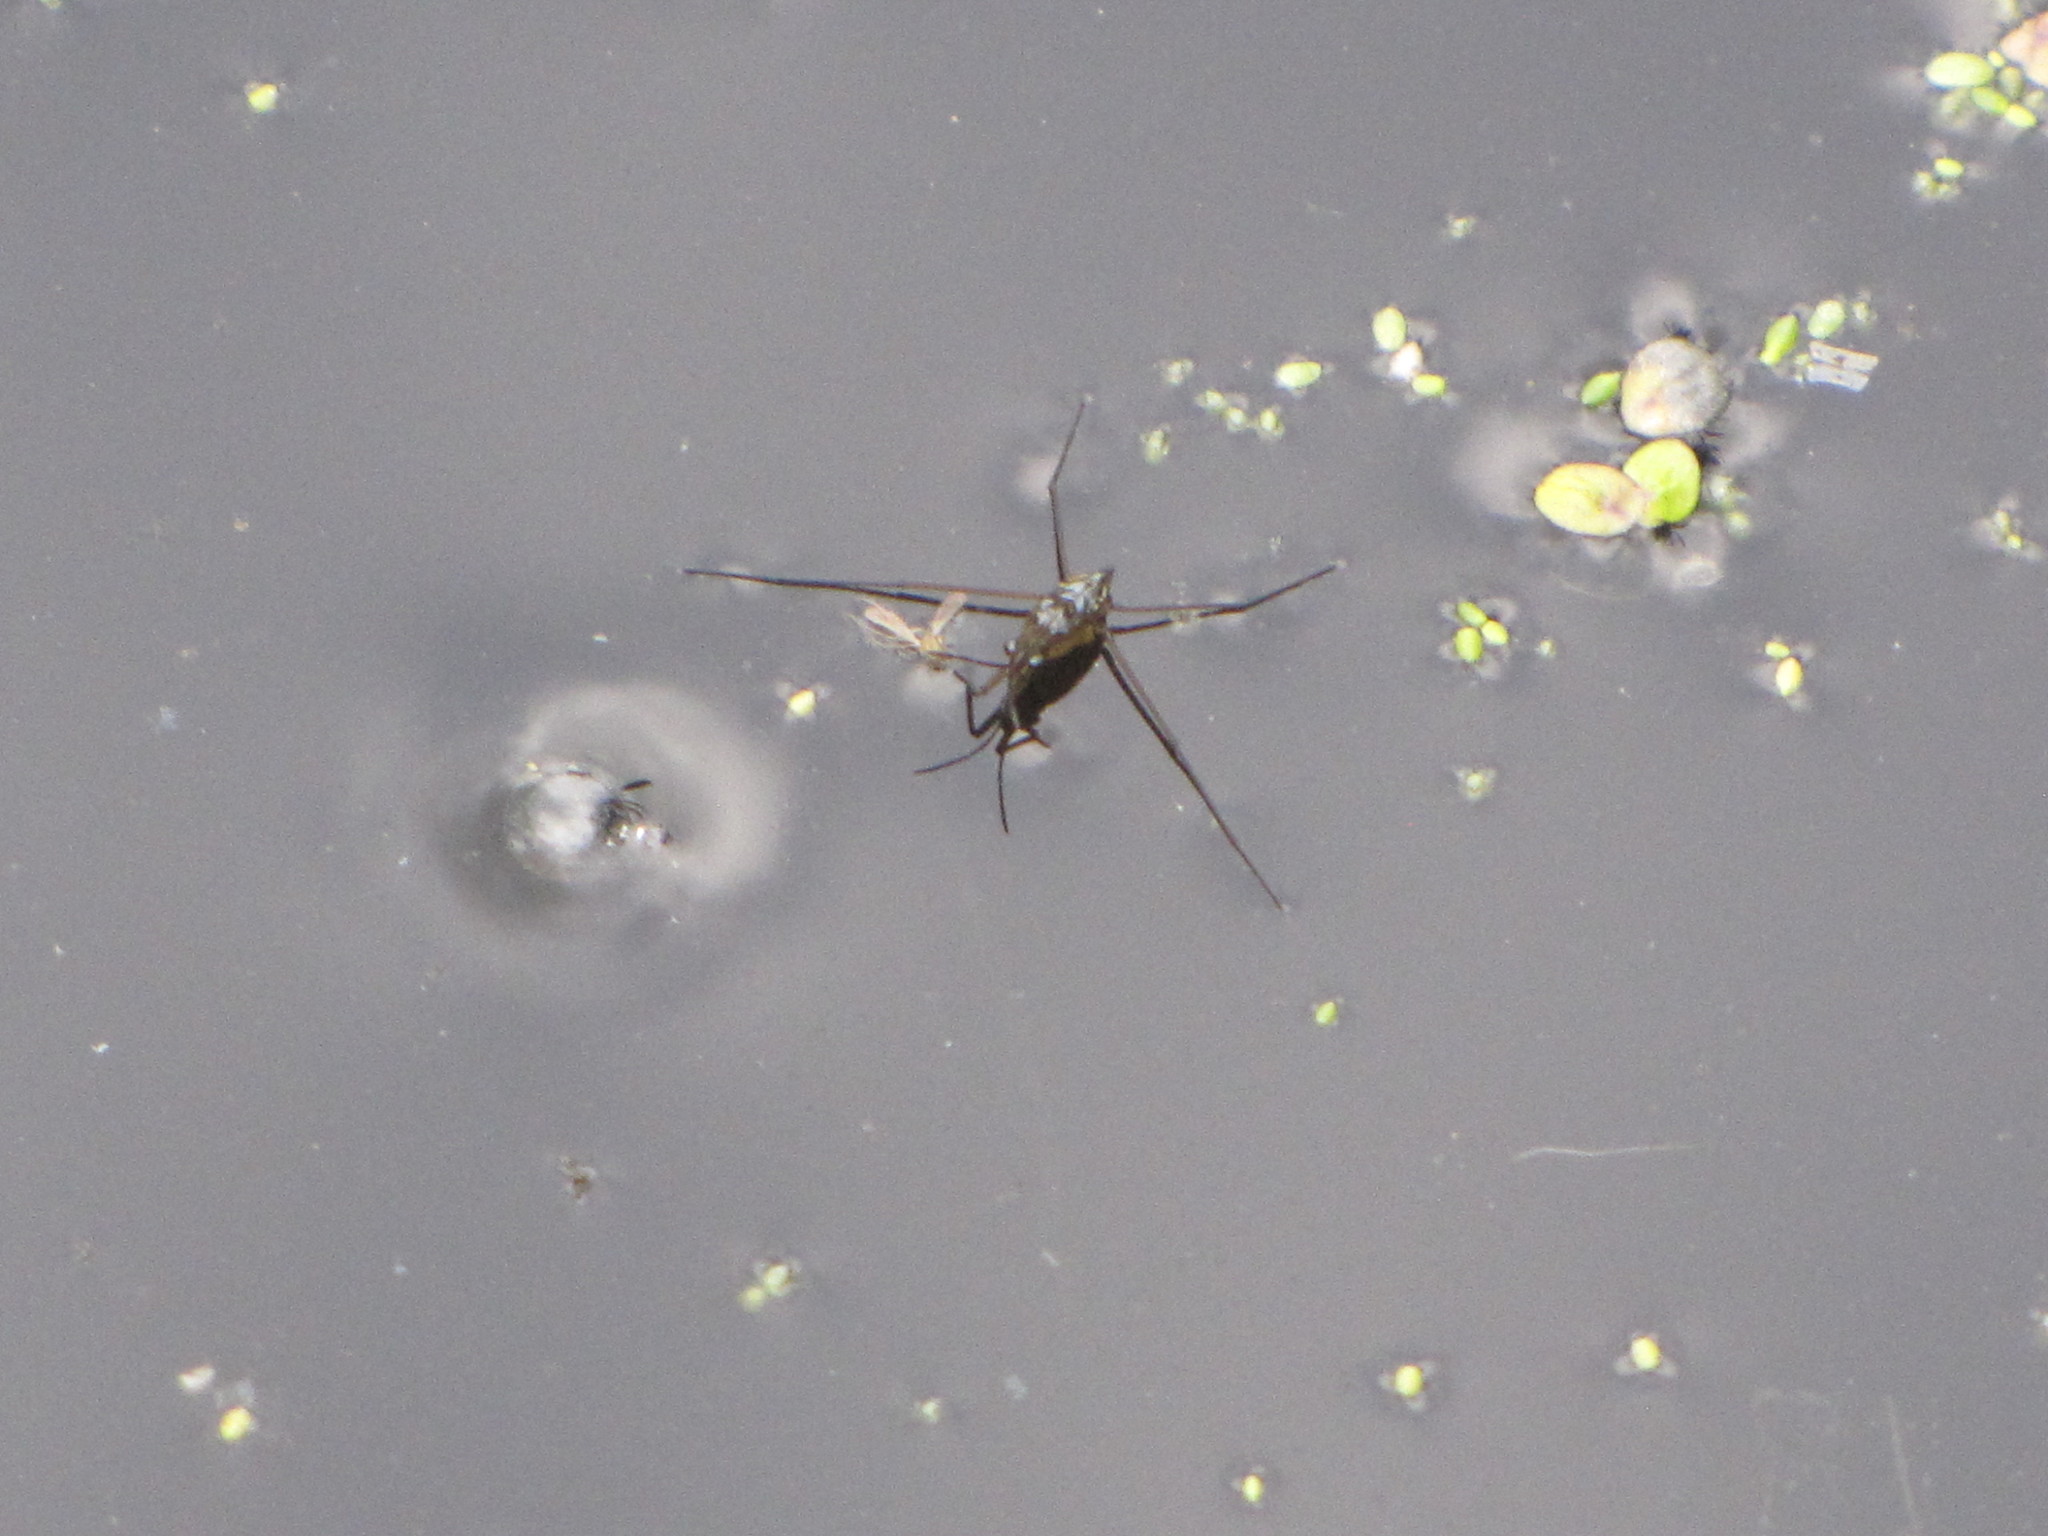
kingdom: Animalia
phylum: Arthropoda
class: Insecta
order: Hemiptera
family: Gerridae
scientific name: Gerridae
